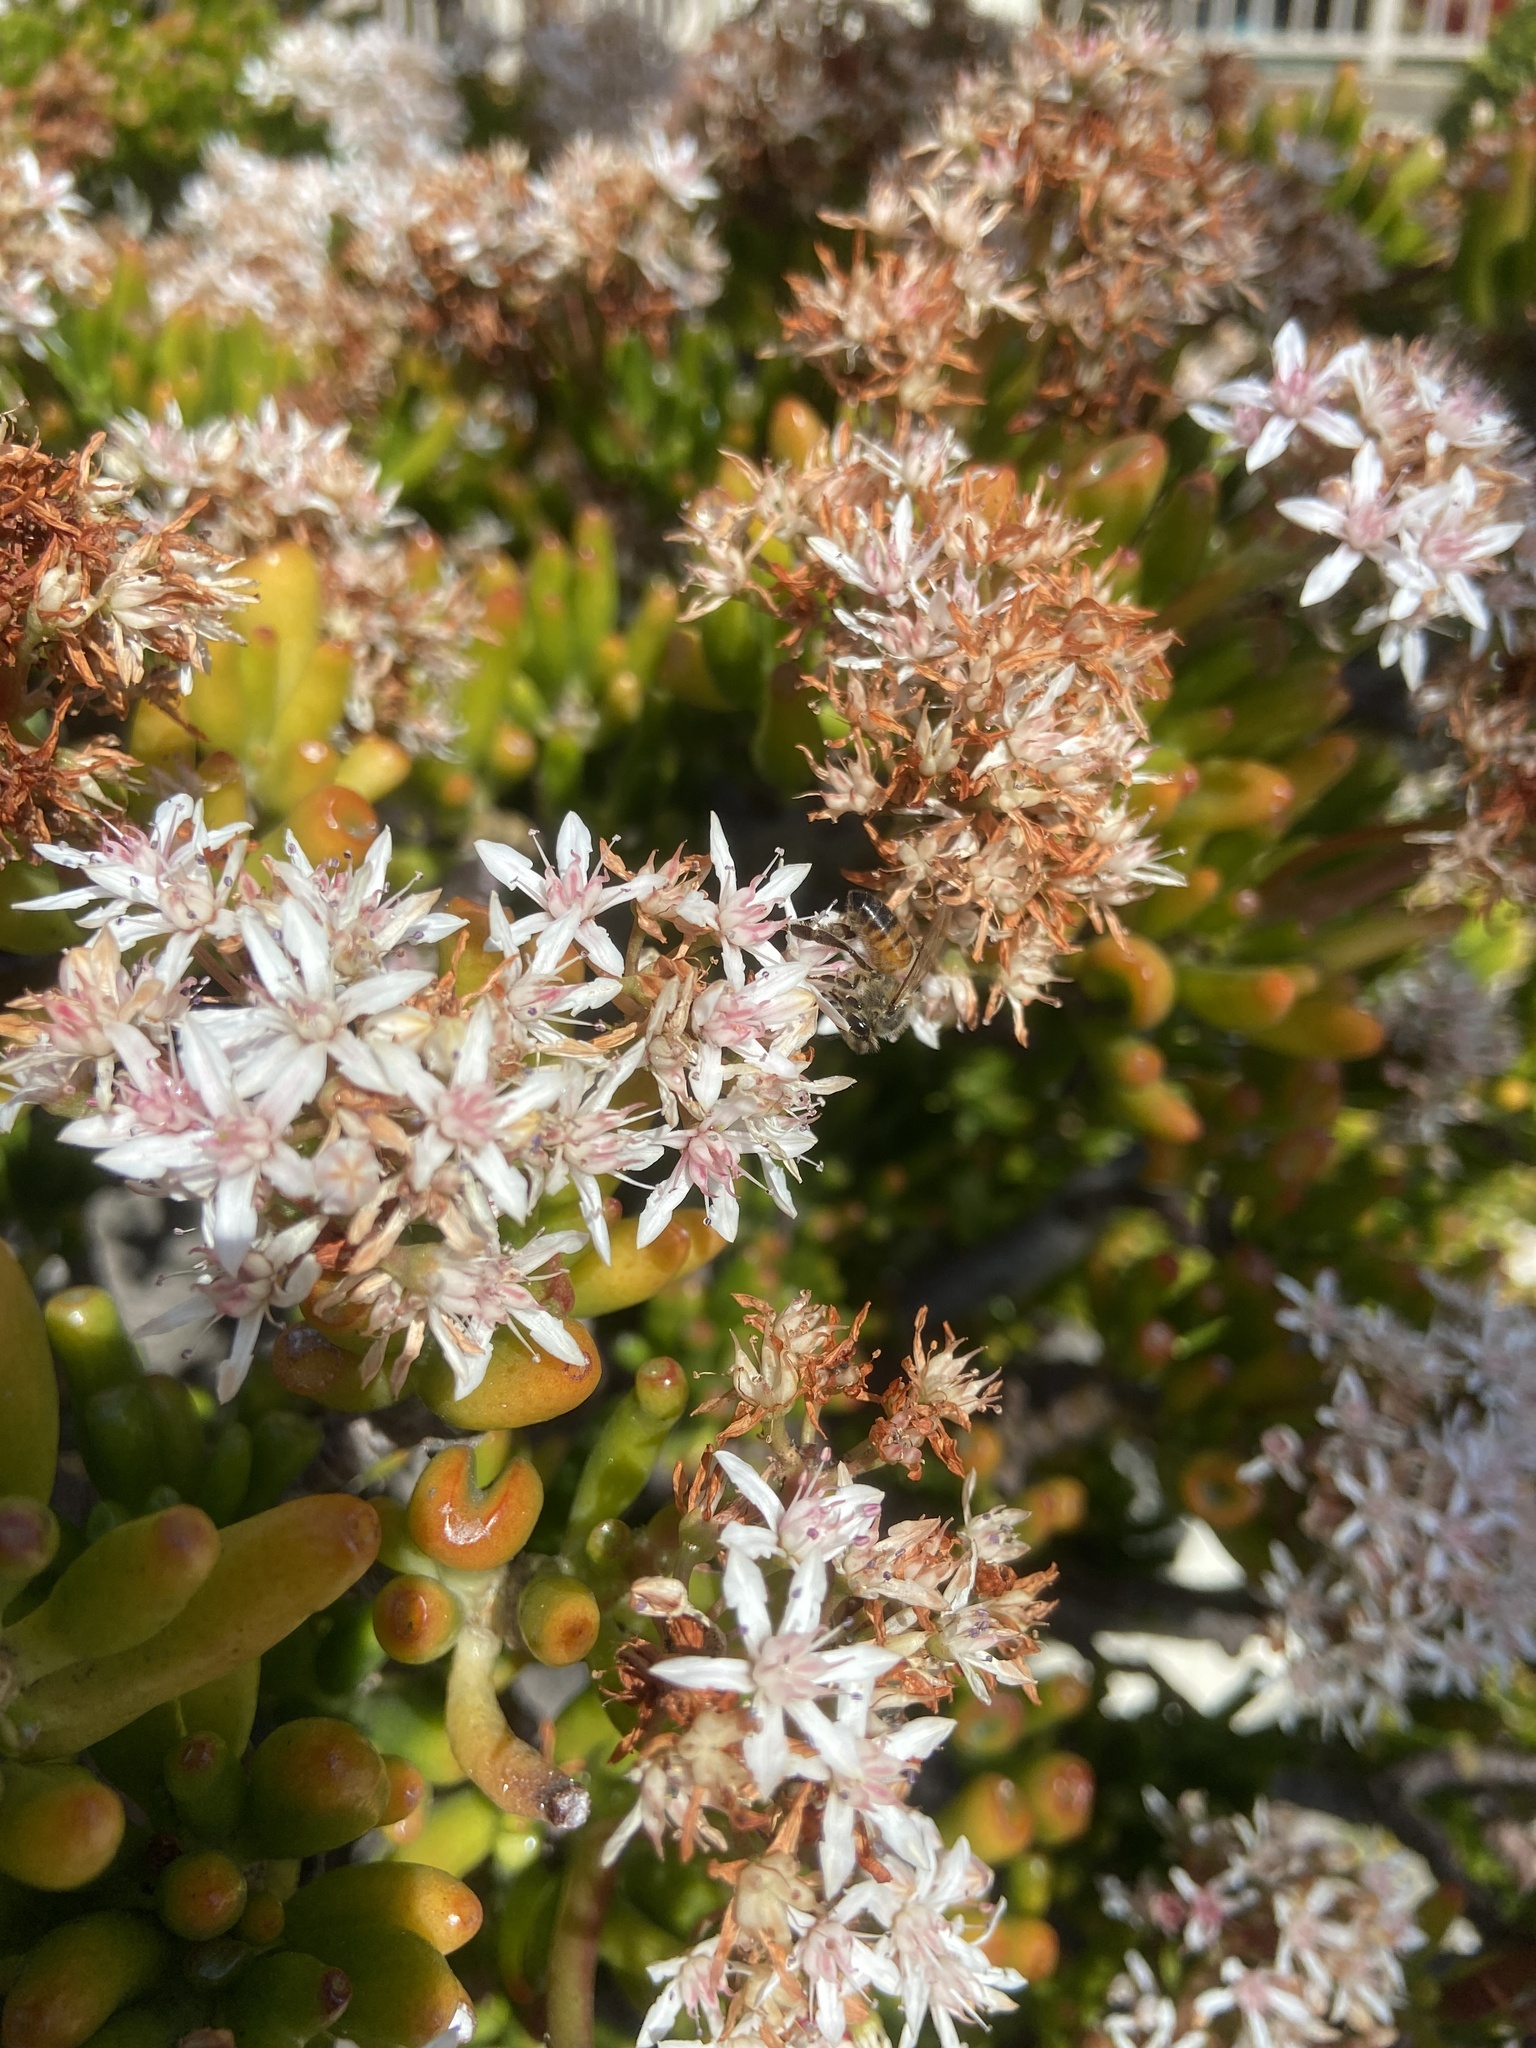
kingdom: Animalia
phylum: Arthropoda
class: Insecta
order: Hymenoptera
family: Apidae
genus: Apis
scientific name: Apis mellifera
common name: Honey bee
